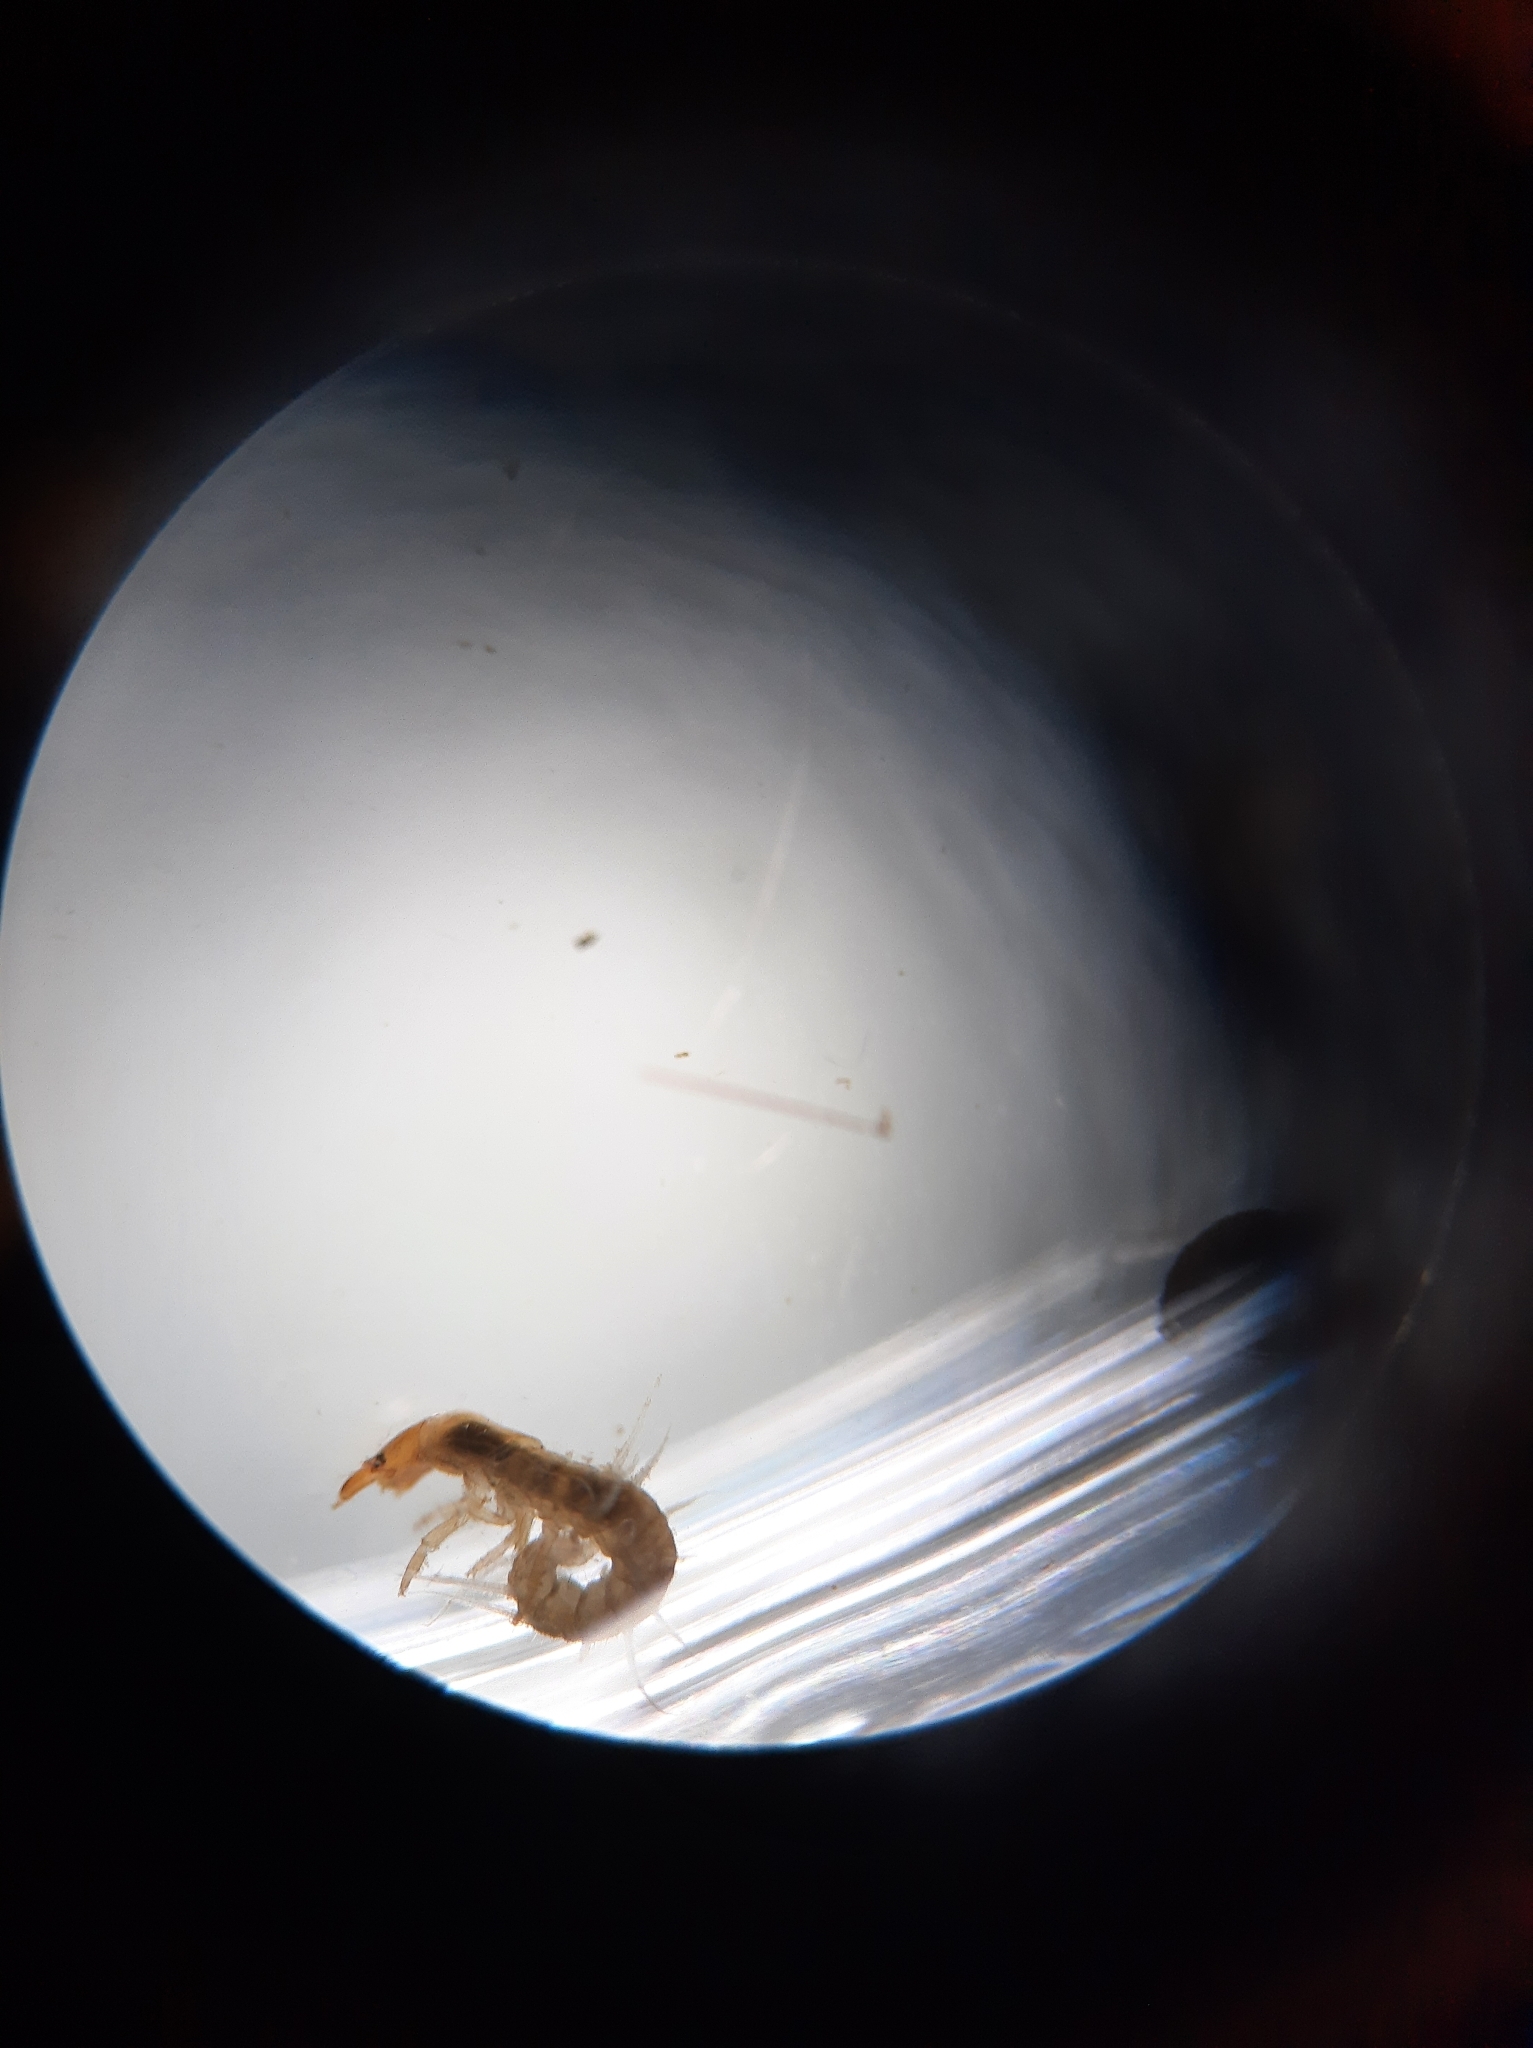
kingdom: Animalia
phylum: Arthropoda
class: Insecta
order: Megaloptera
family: Corydalidae
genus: Archichauliodes
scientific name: Archichauliodes diversus
